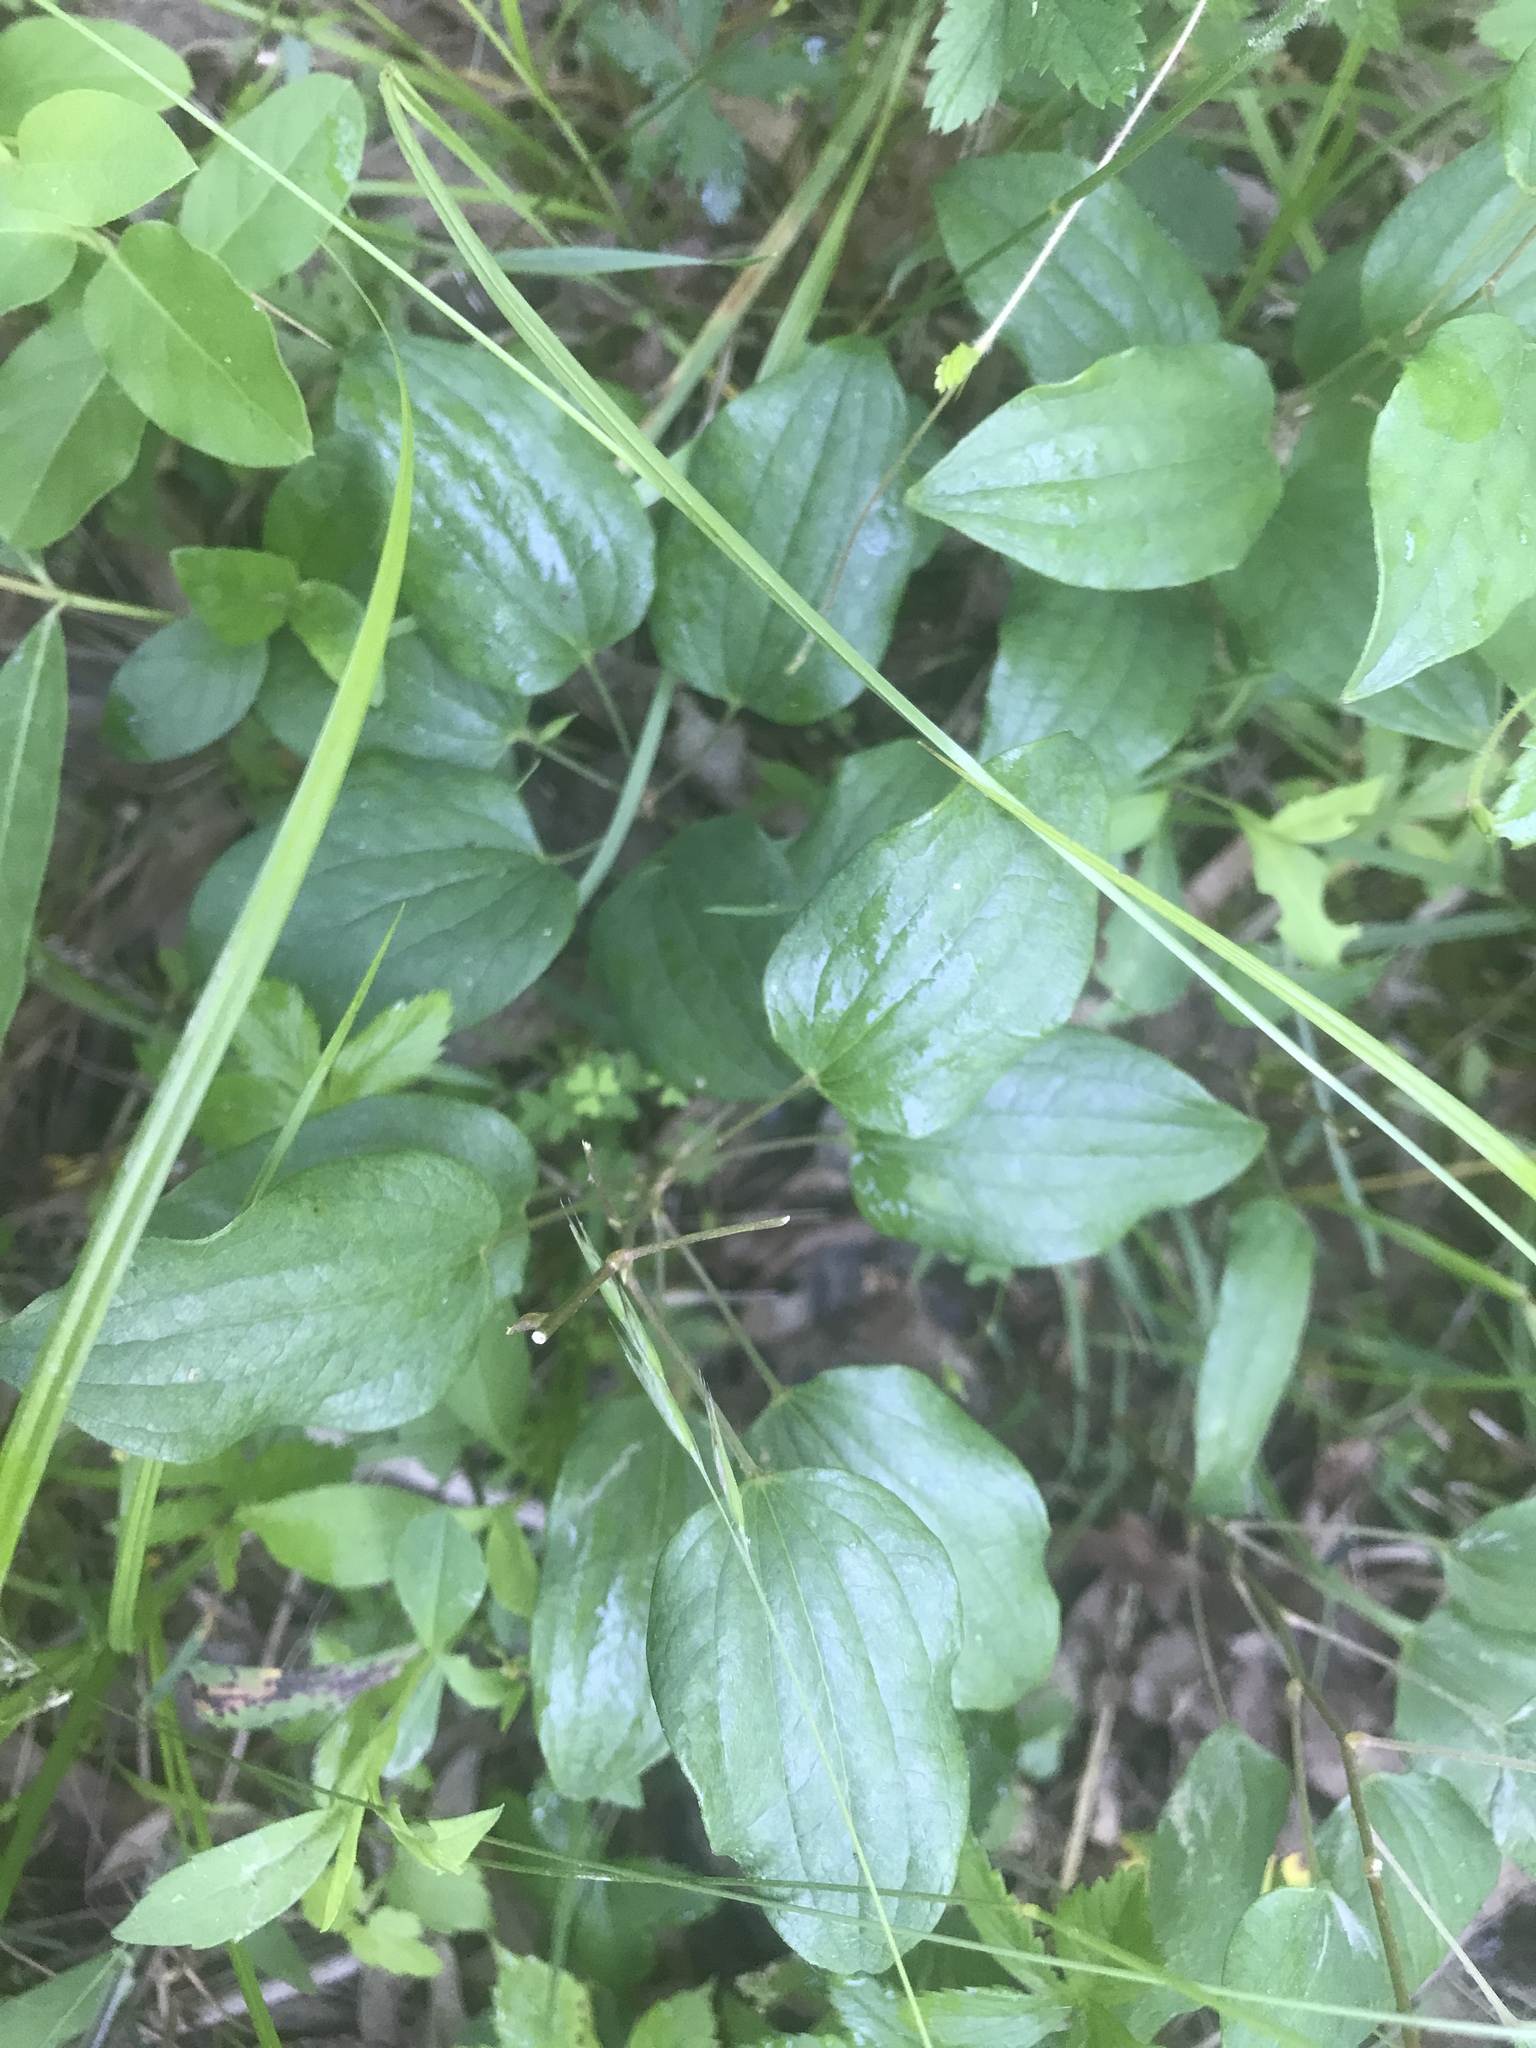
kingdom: Plantae
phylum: Tracheophyta
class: Liliopsida
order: Liliales
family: Smilacaceae
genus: Smilax
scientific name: Smilax herbacea
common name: Jacob's-ladder
